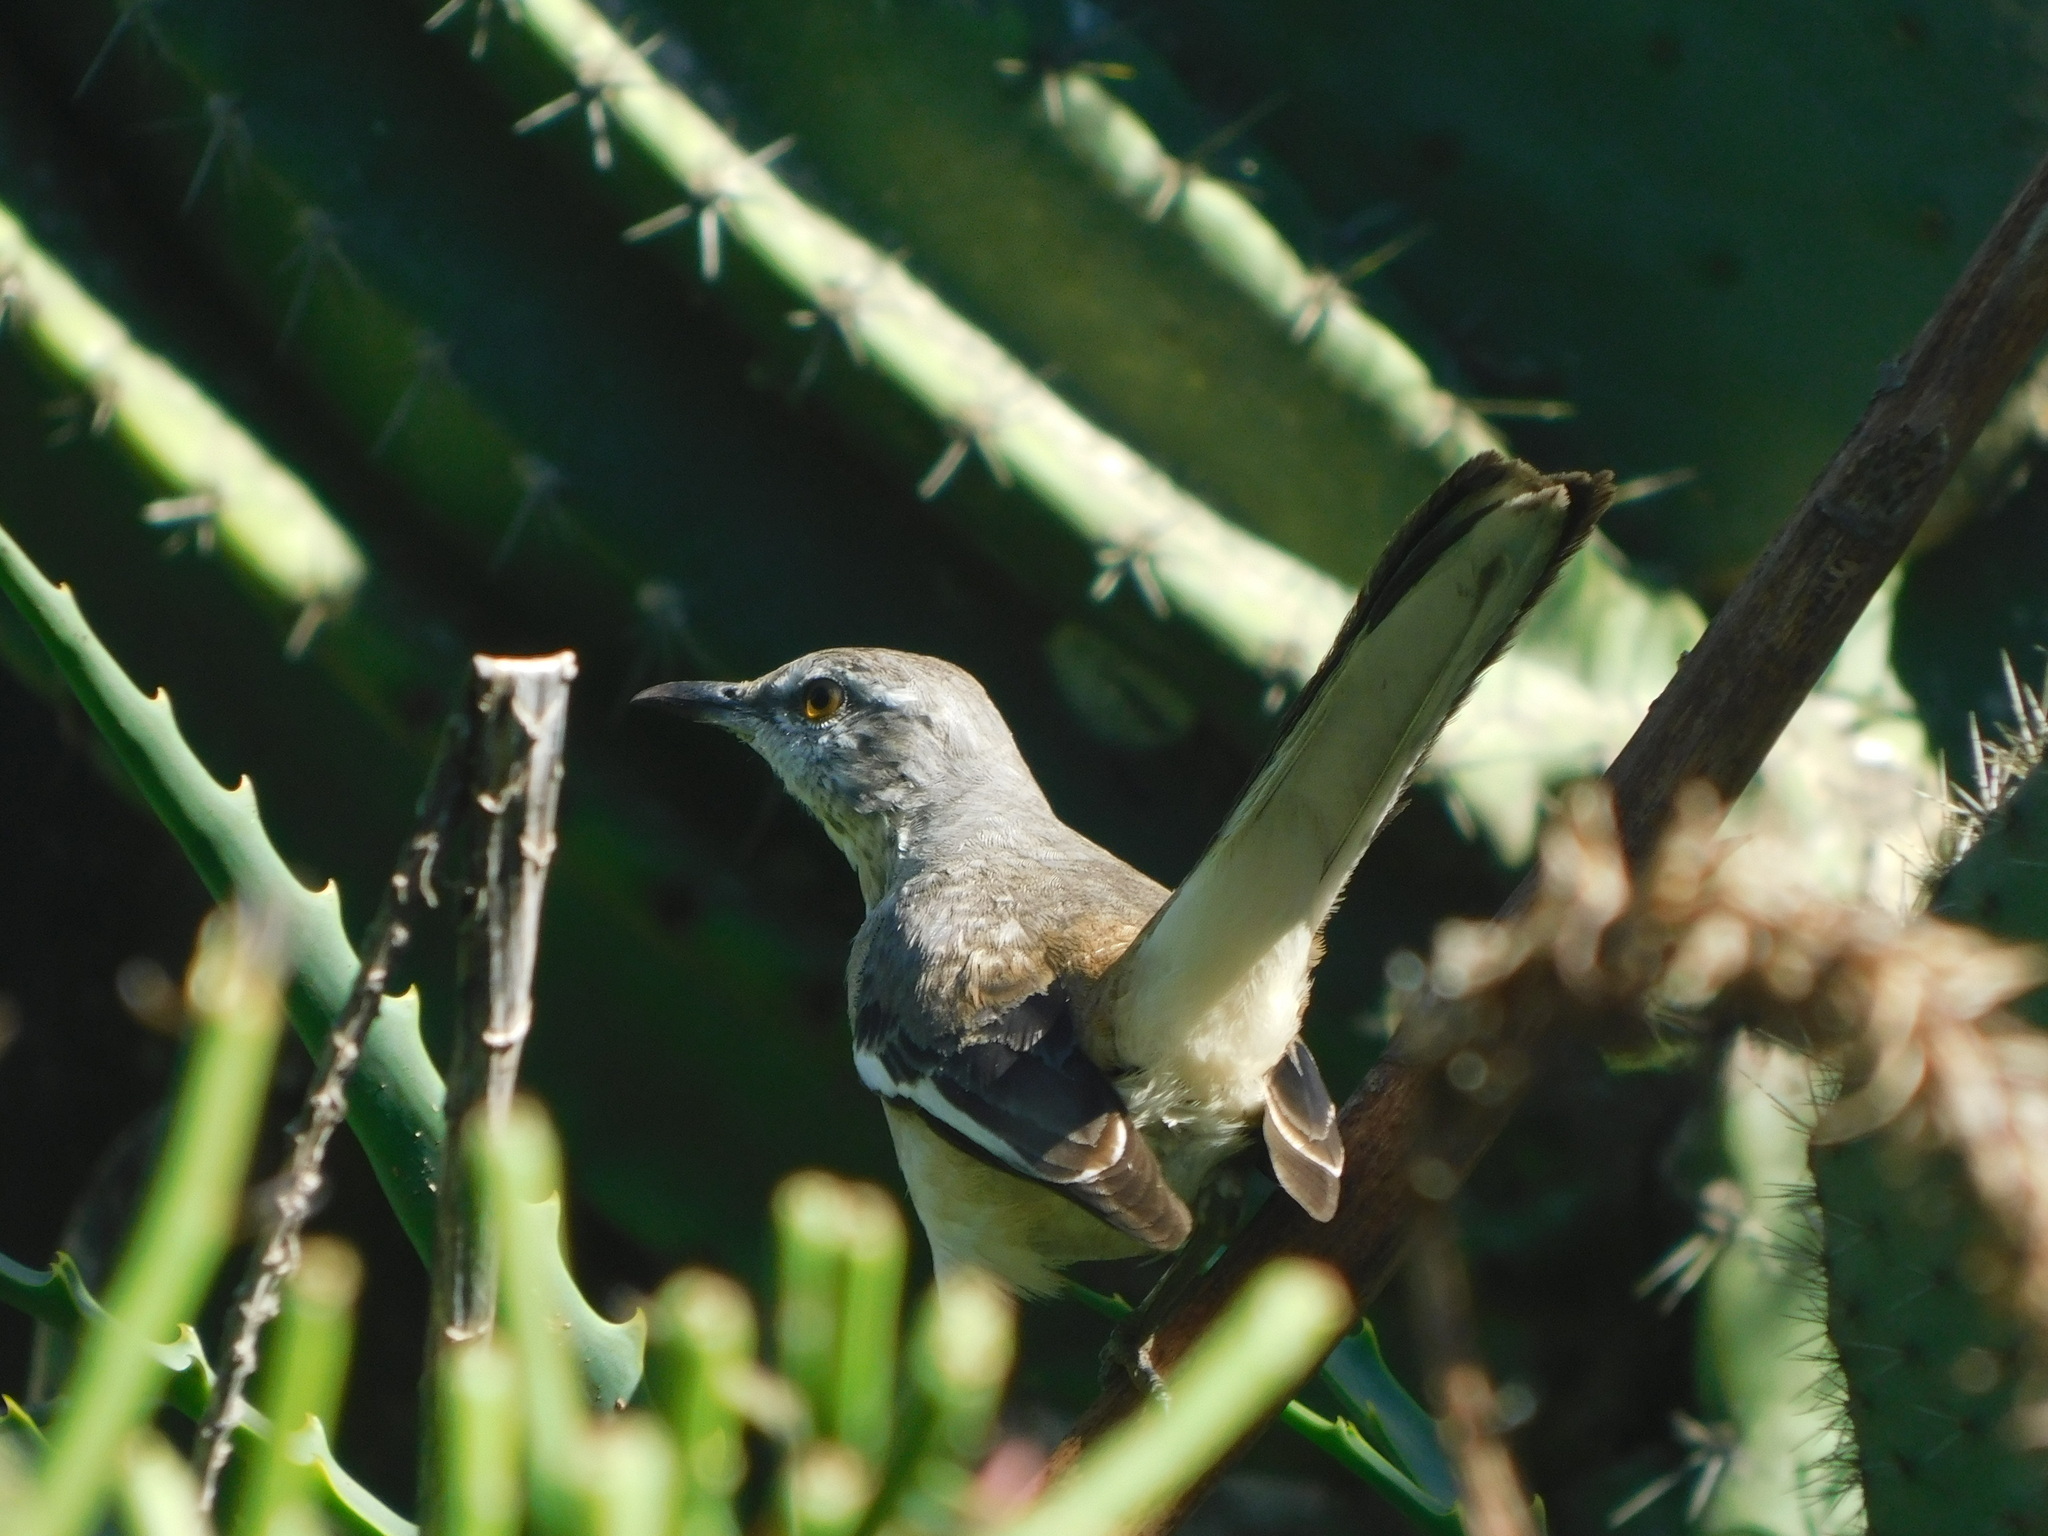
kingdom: Animalia
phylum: Chordata
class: Aves
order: Passeriformes
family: Mimidae
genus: Mimus
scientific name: Mimus triurus
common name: White-banded mockingbird
